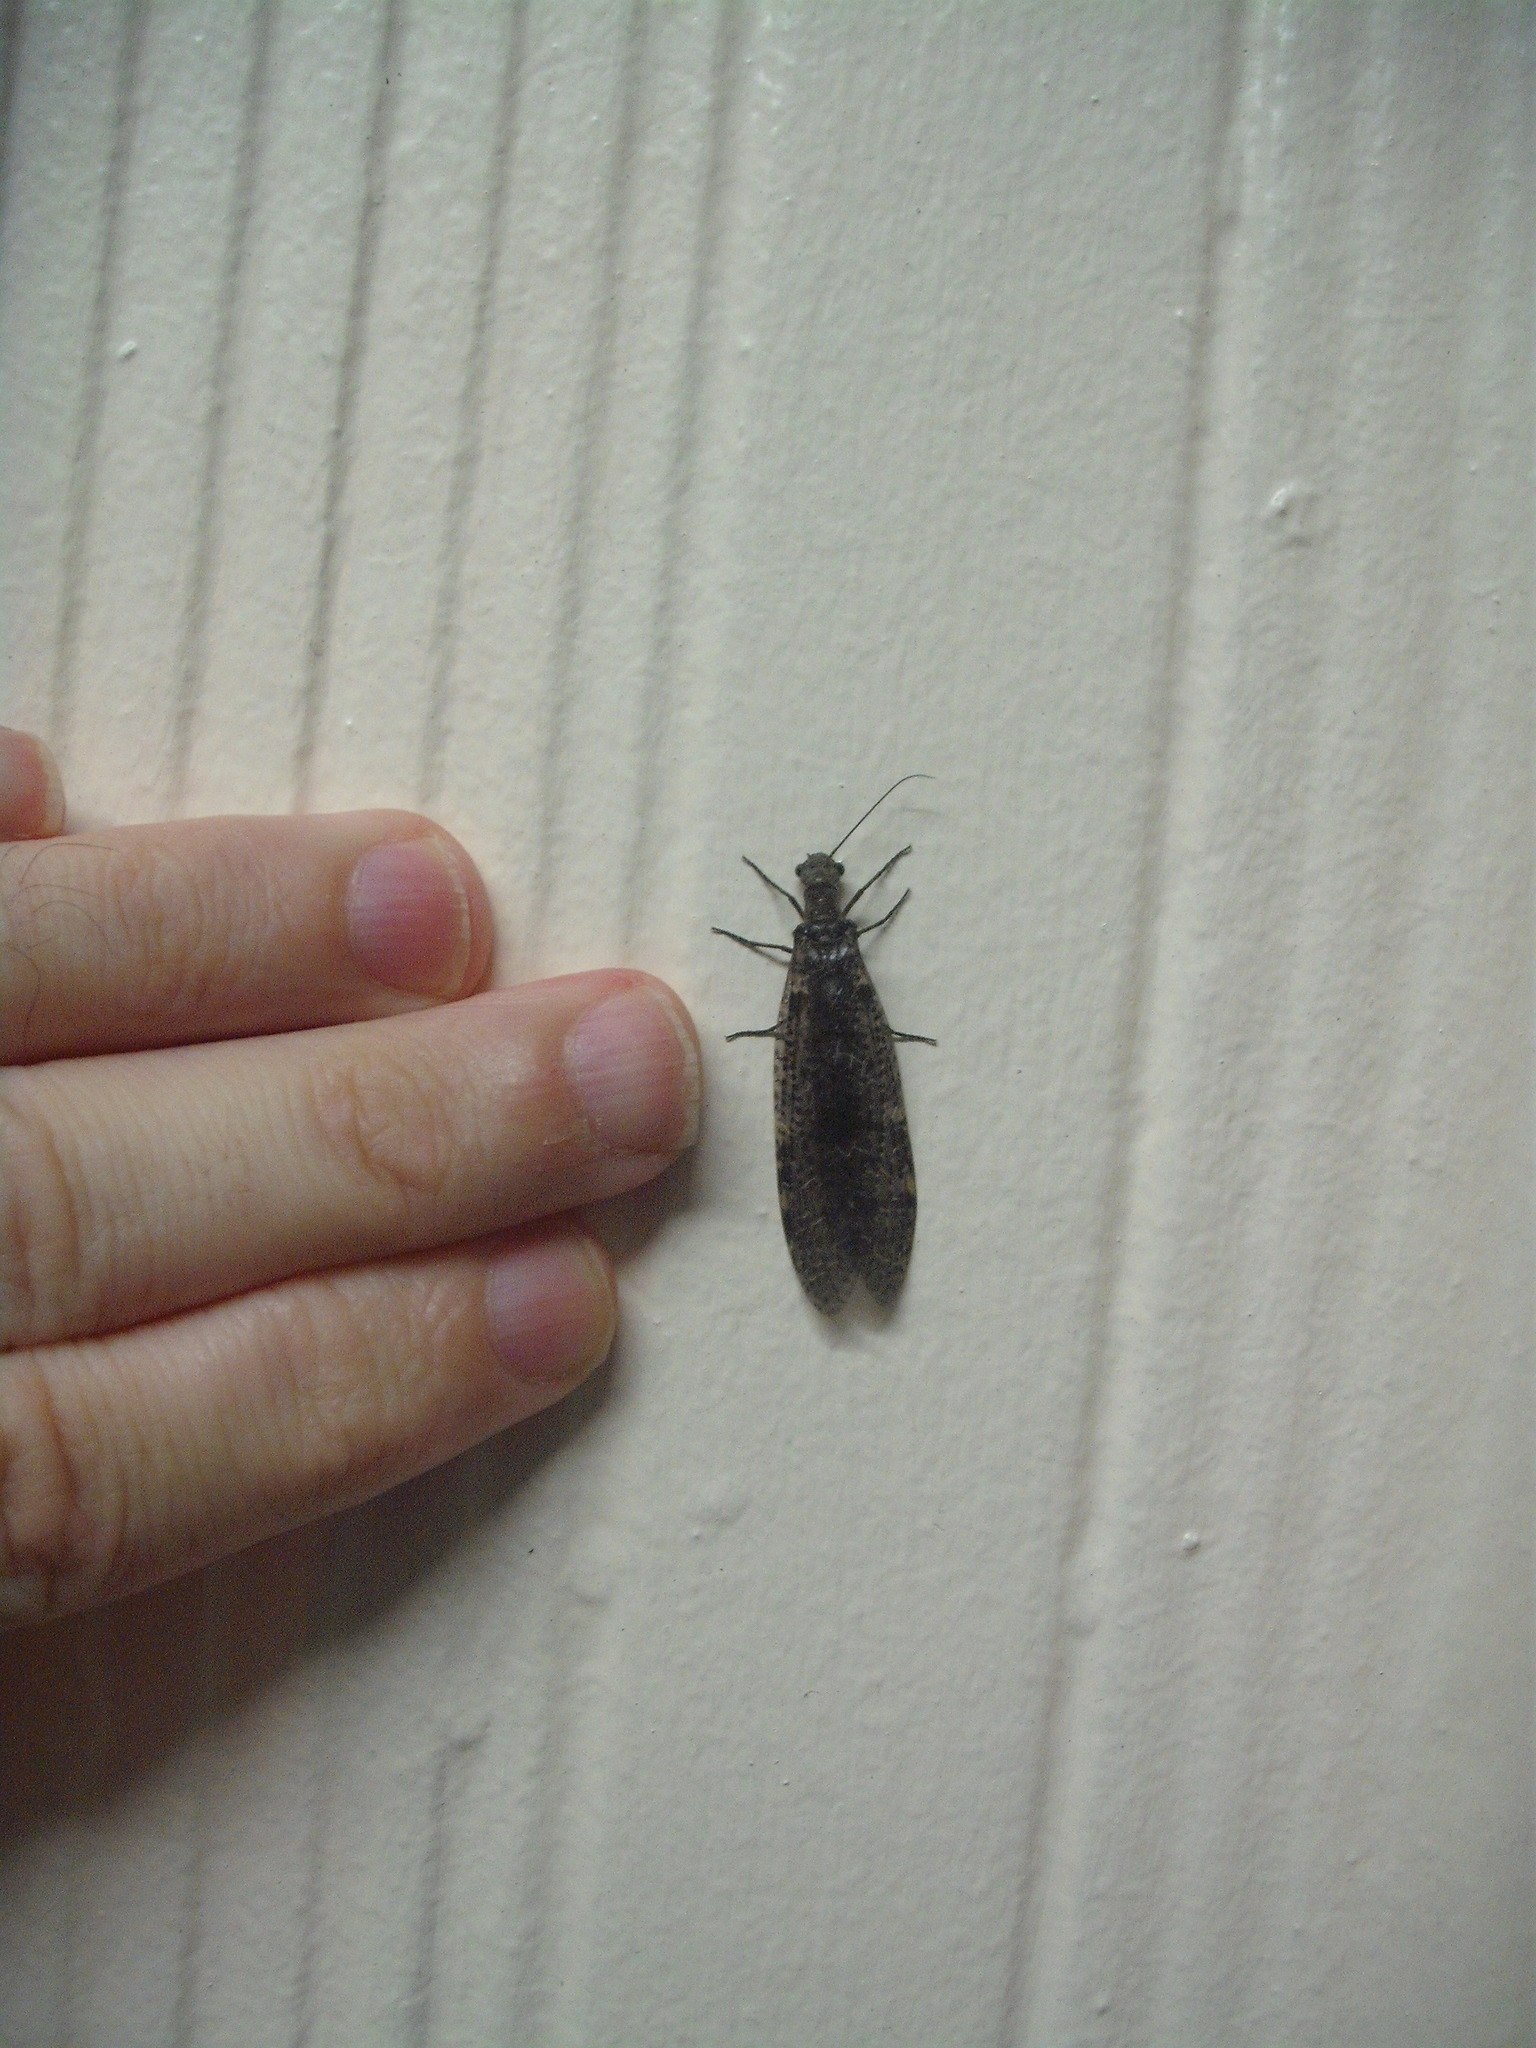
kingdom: Animalia
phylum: Arthropoda
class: Insecta
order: Megaloptera
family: Corydalidae
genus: Archichauliodes
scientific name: Archichauliodes diversus
